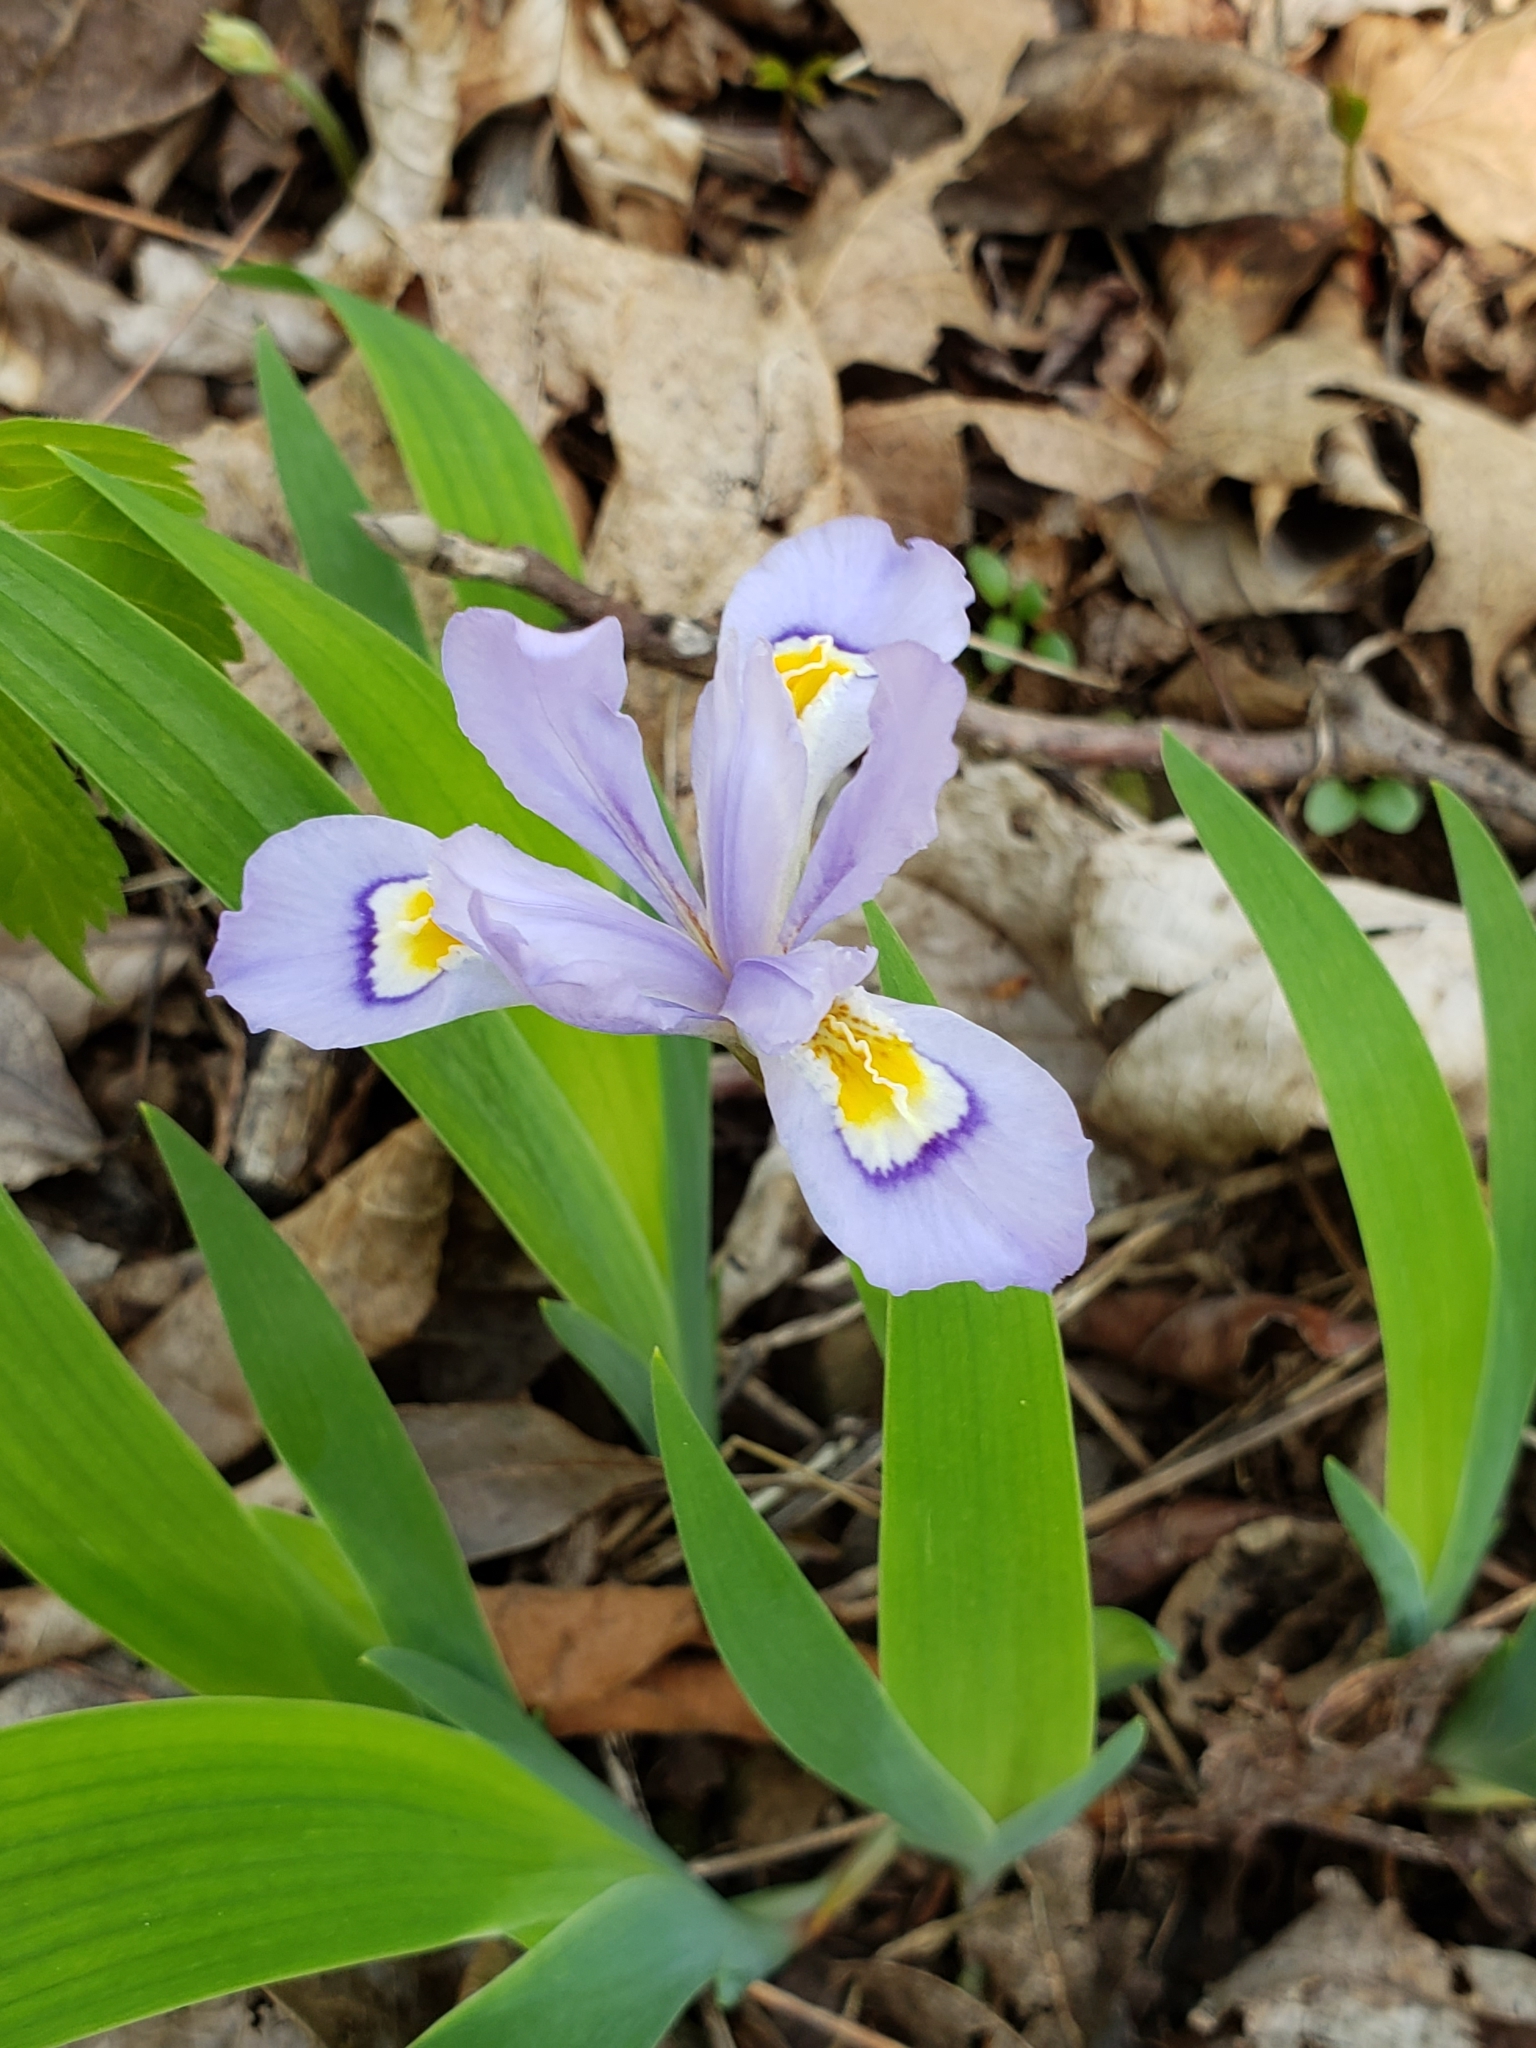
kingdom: Plantae
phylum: Tracheophyta
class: Liliopsida
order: Asparagales
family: Iridaceae
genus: Iris
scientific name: Iris cristata
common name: Crested iris
